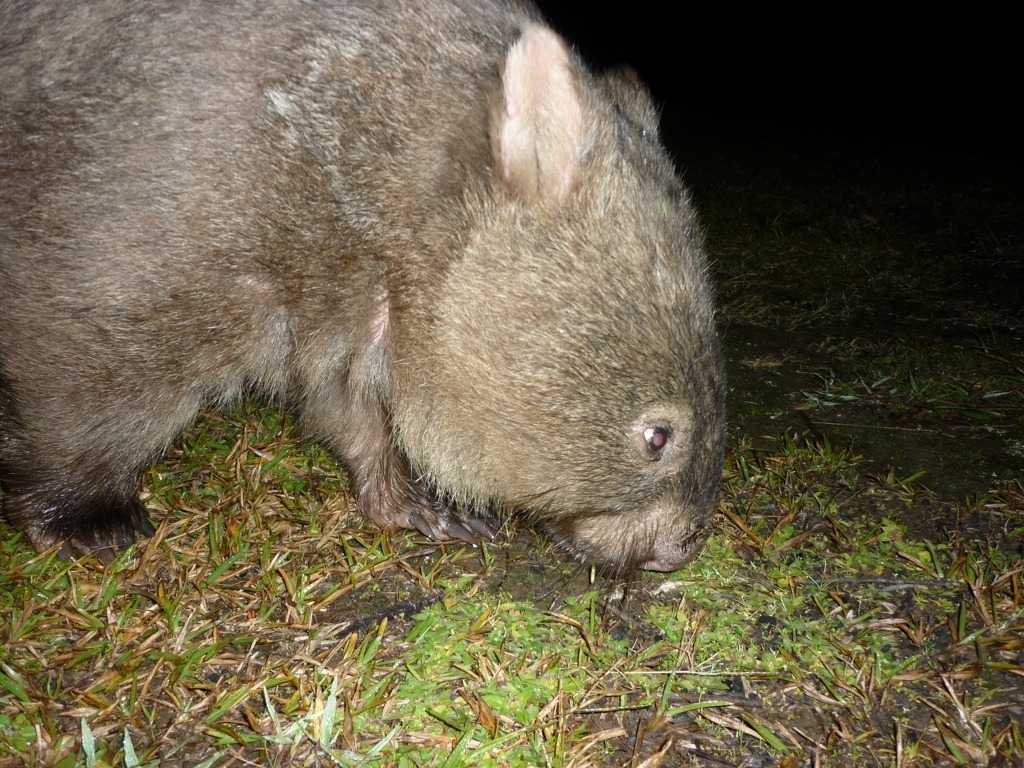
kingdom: Animalia
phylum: Chordata
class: Mammalia
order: Diprotodontia
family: Vombatidae
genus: Vombatus
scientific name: Vombatus ursinus
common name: Common wombat
